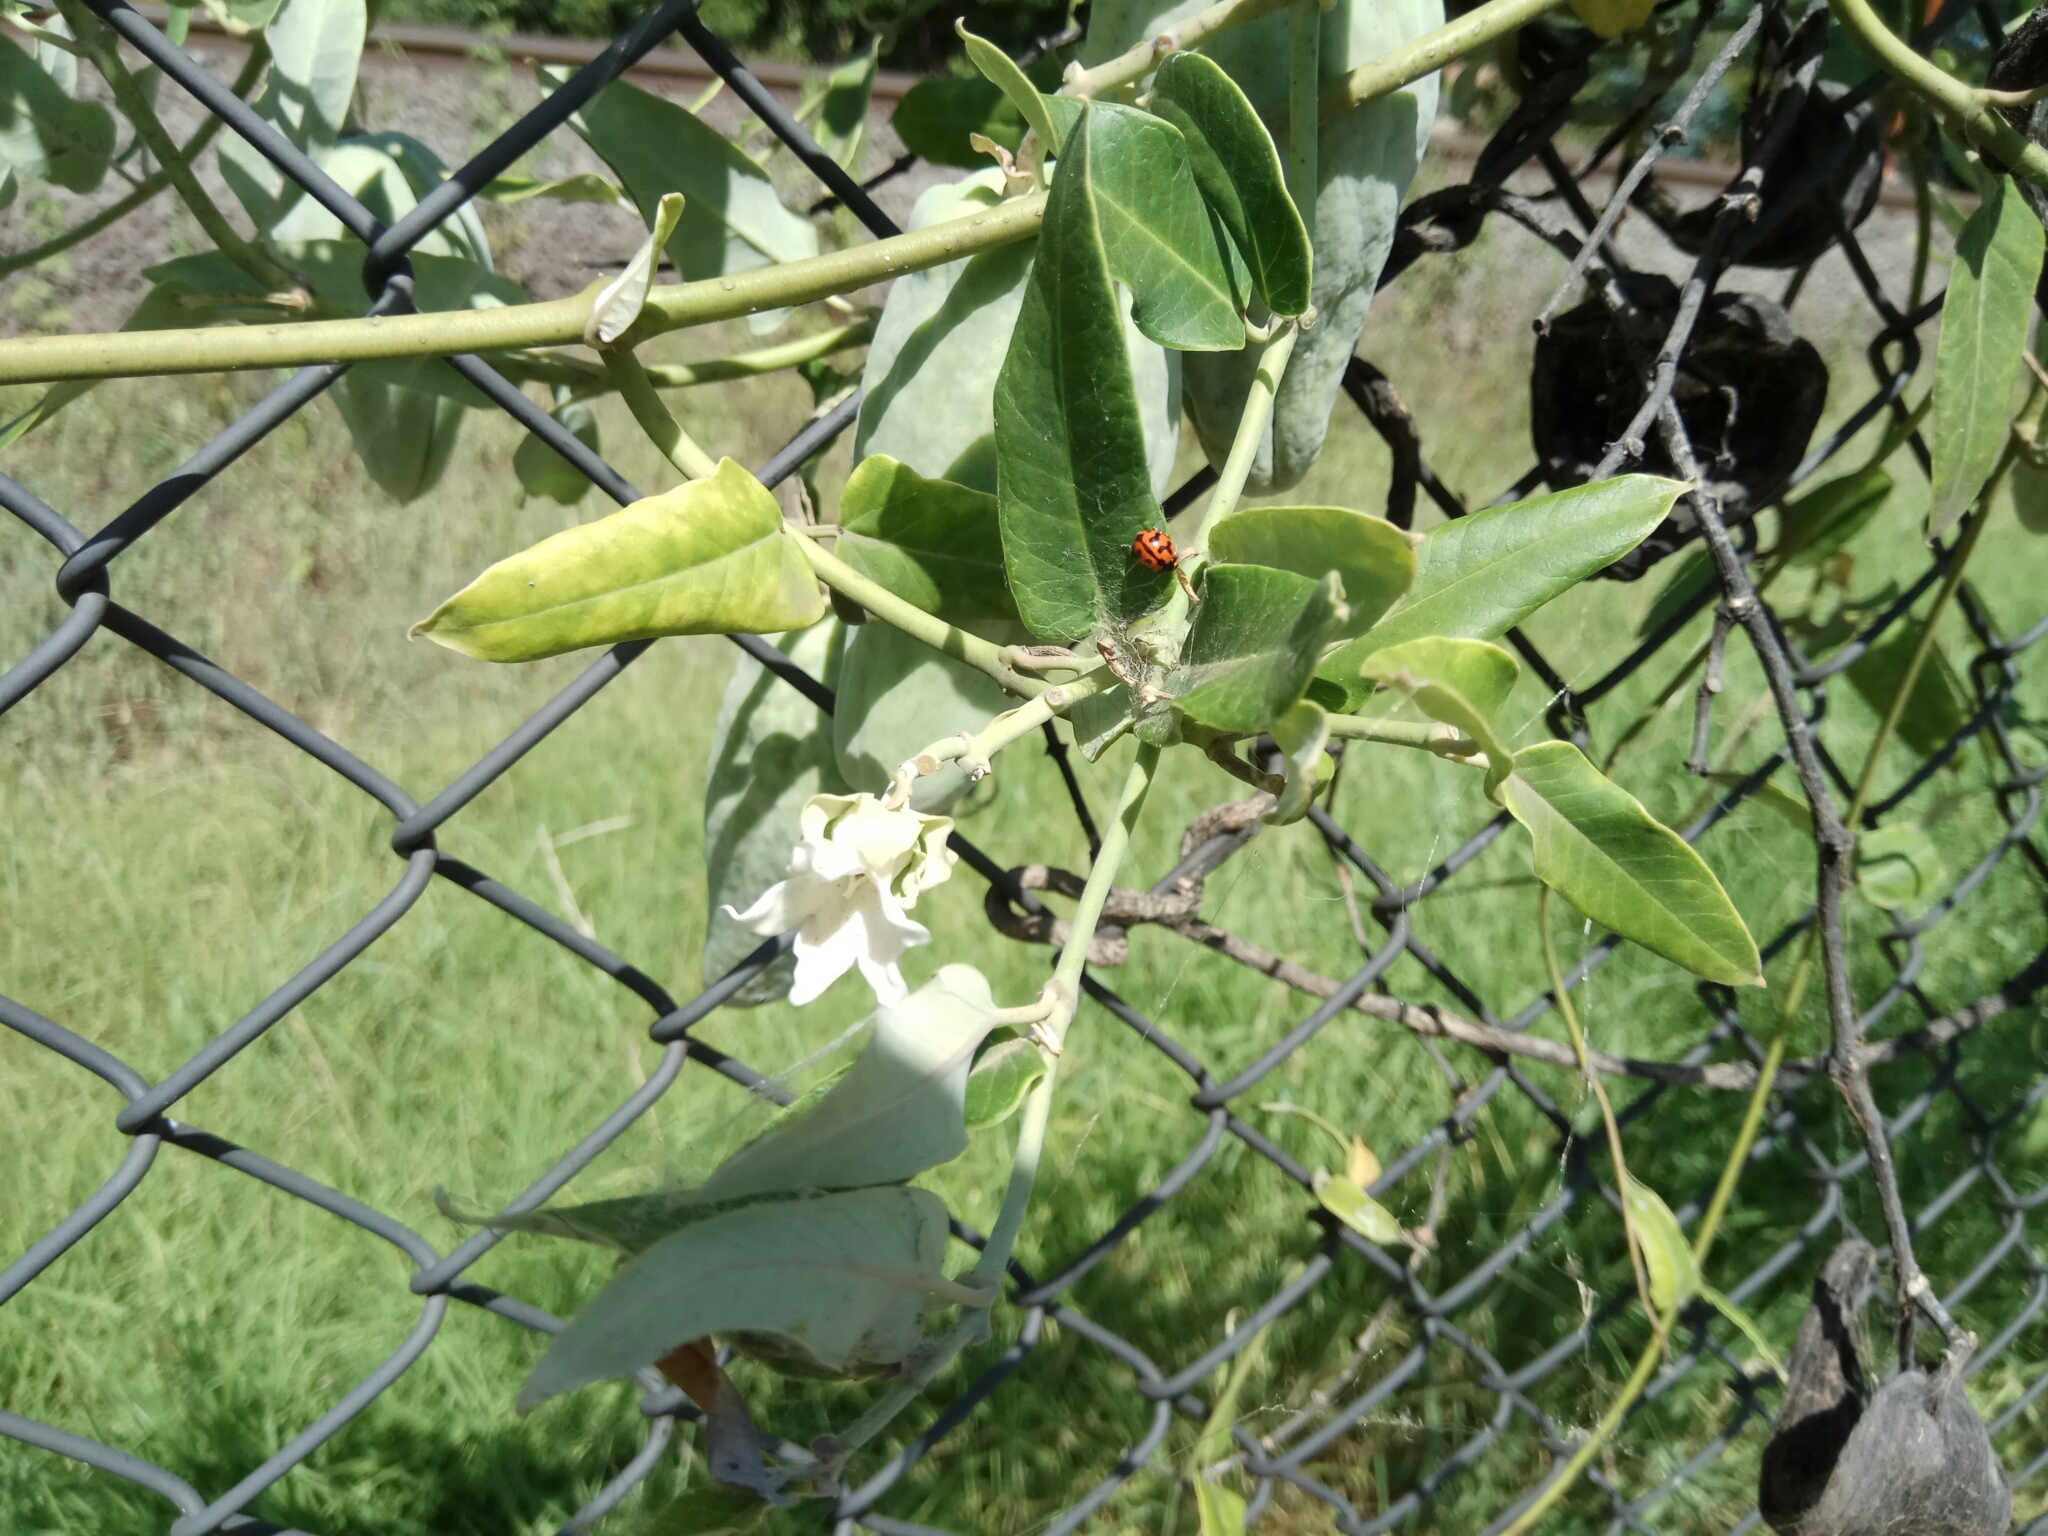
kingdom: Plantae
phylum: Tracheophyta
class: Magnoliopsida
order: Gentianales
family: Apocynaceae
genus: Araujia
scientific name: Araujia sericifera
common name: White bladderflower
